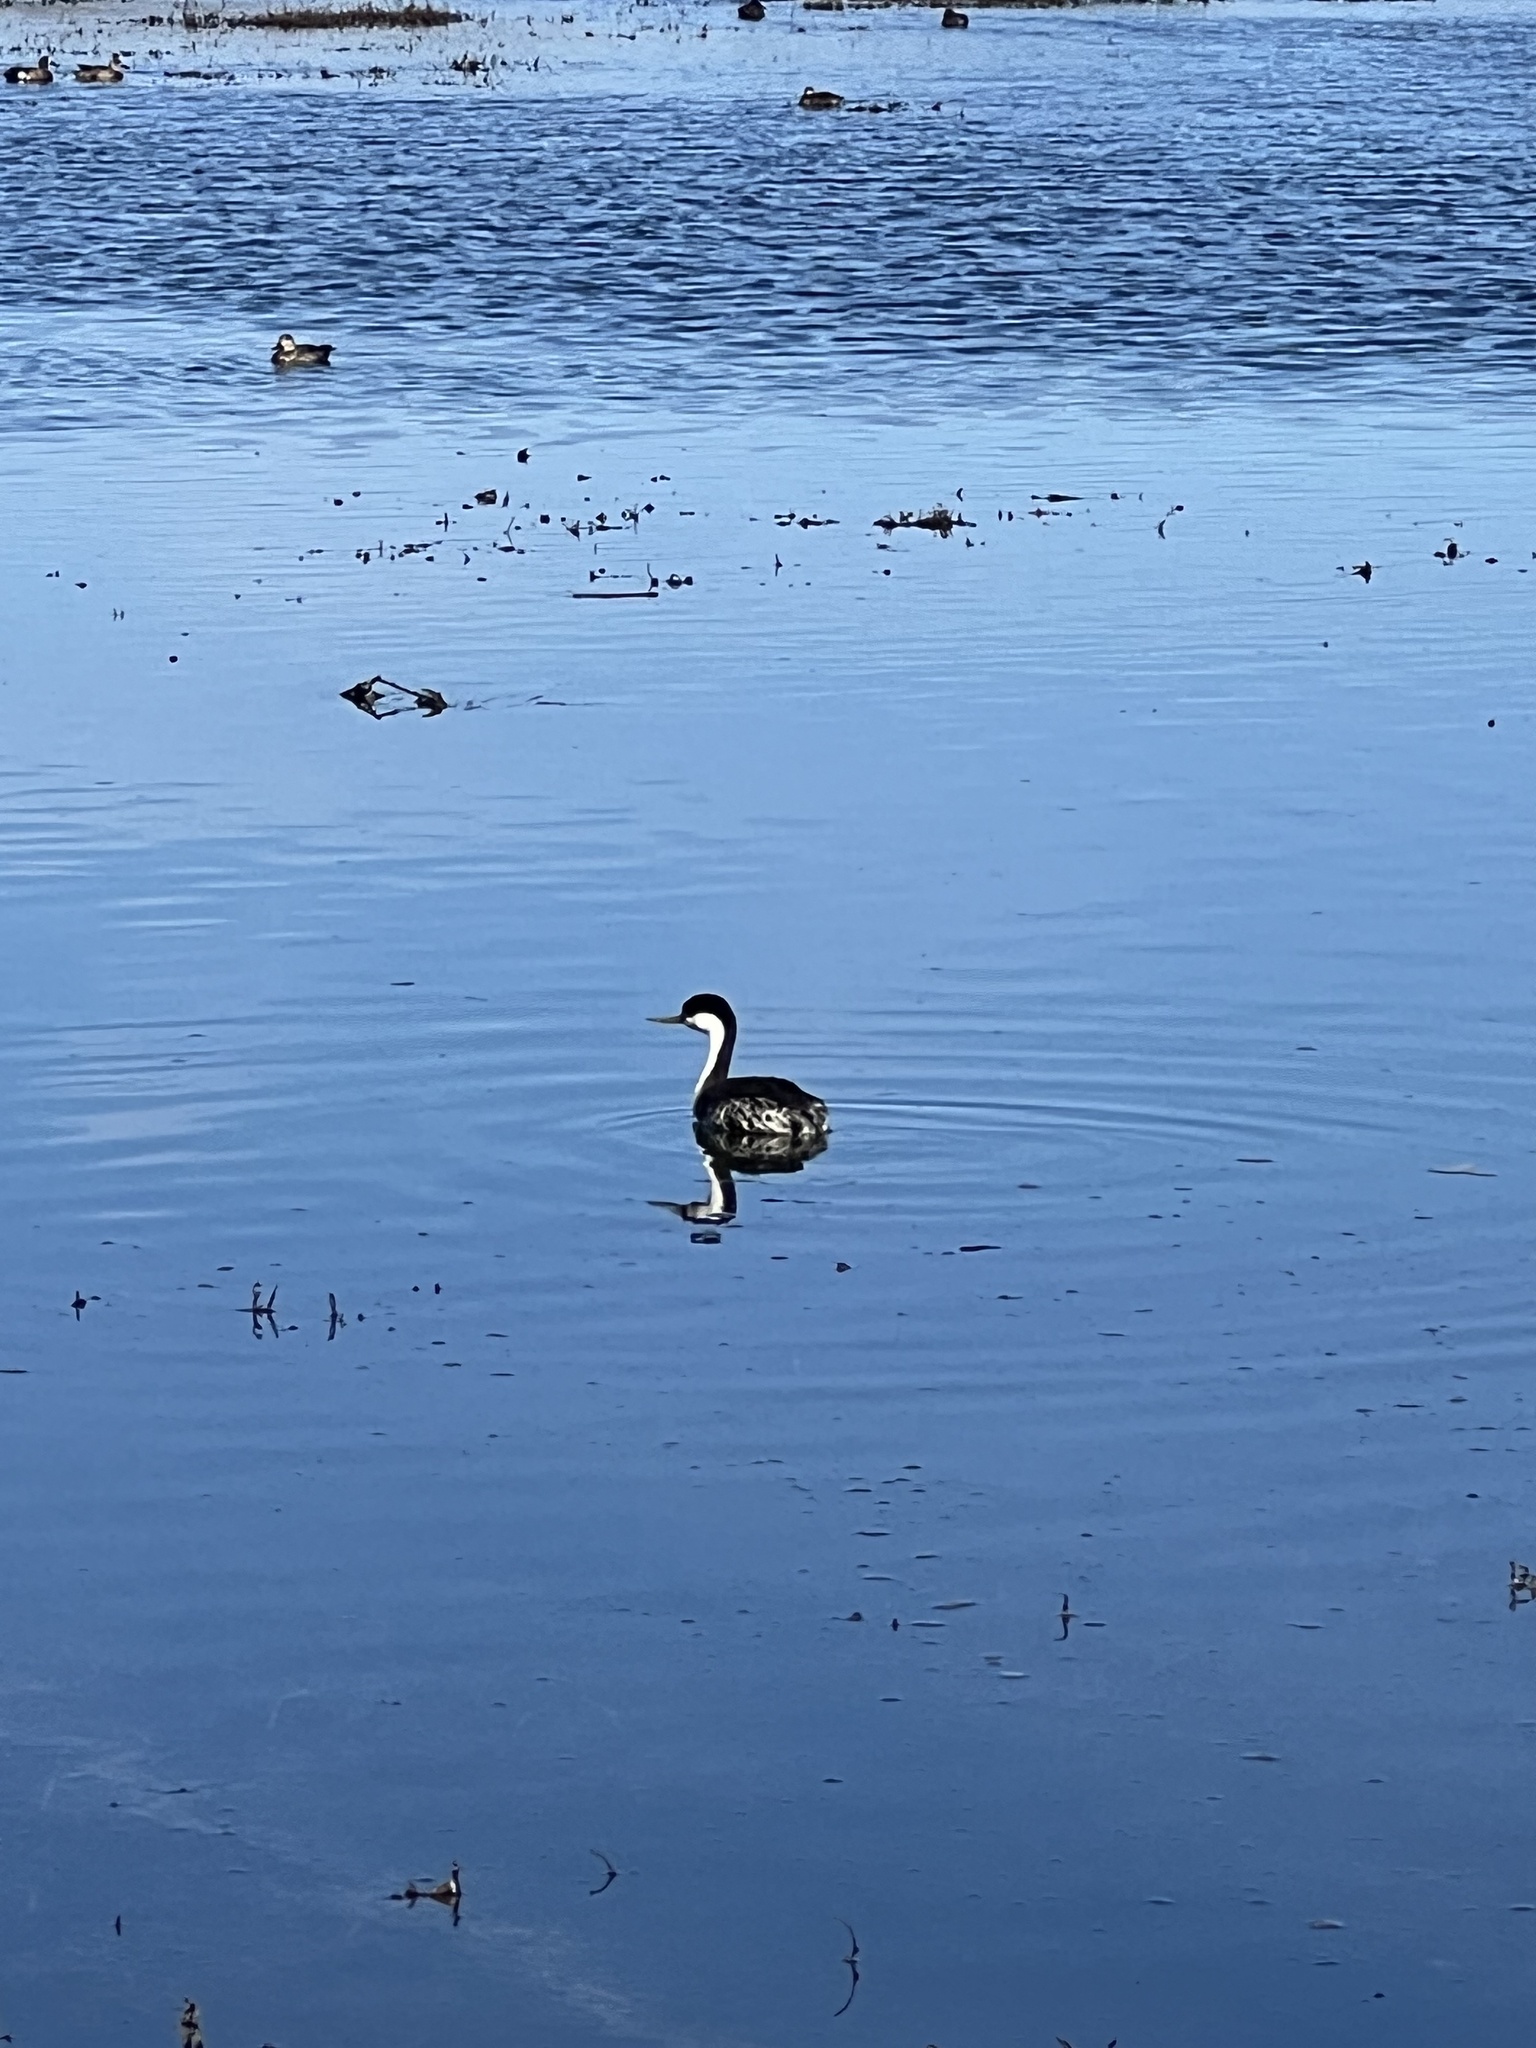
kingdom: Animalia
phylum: Chordata
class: Aves
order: Podicipediformes
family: Podicipedidae
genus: Aechmophorus
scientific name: Aechmophorus occidentalis
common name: Western grebe
